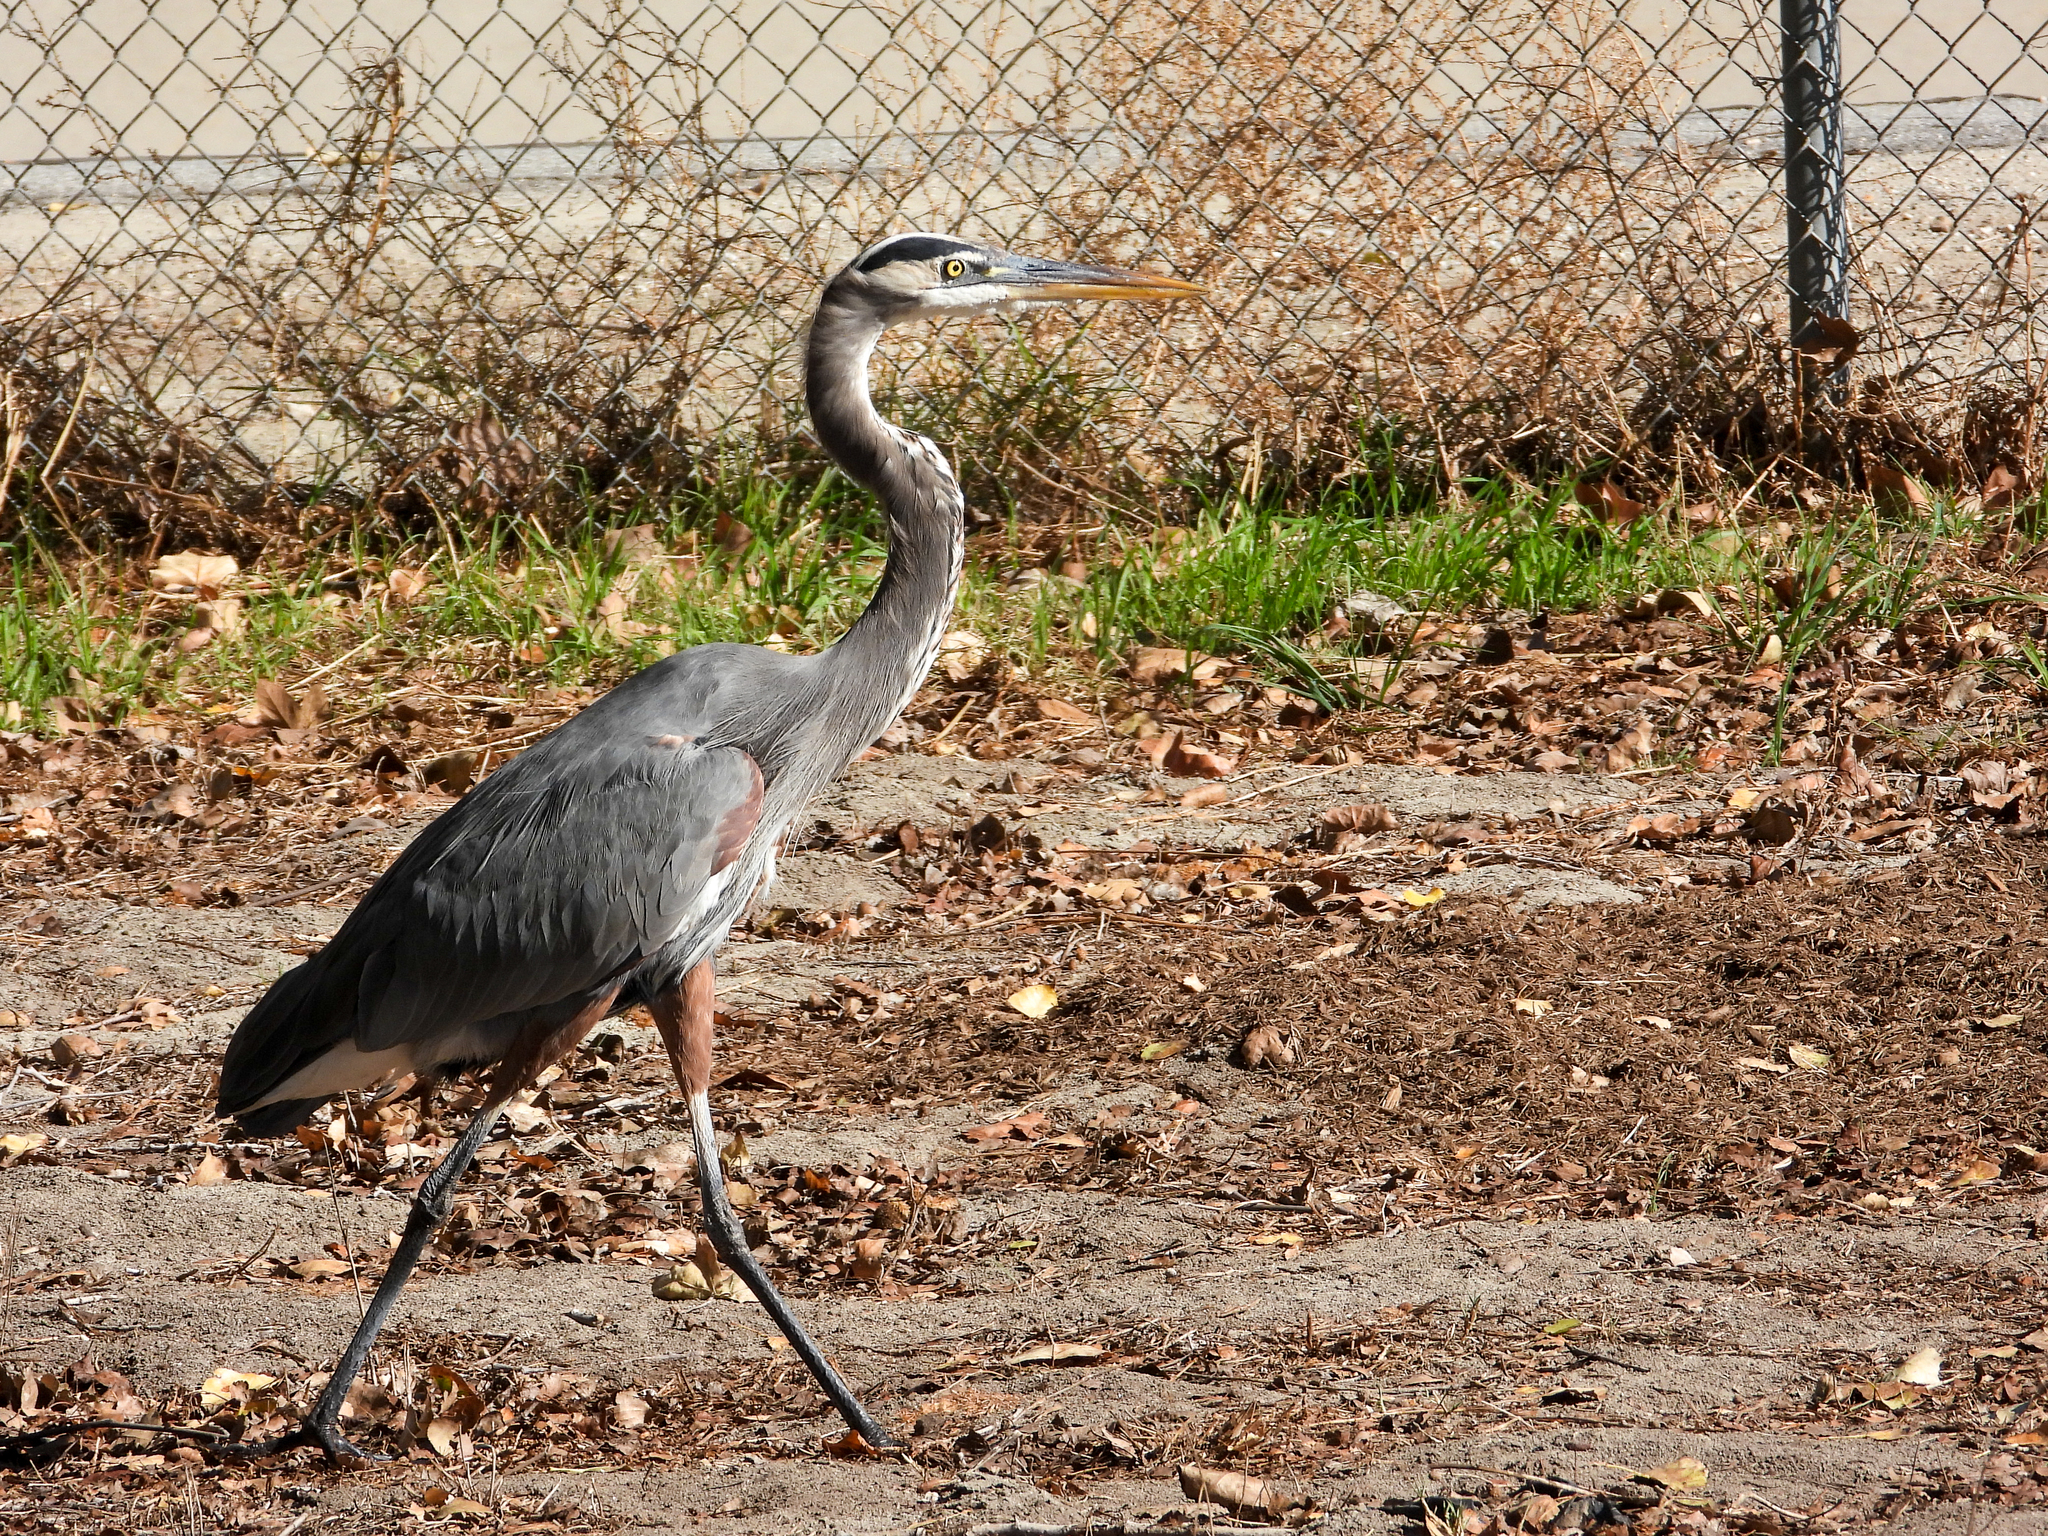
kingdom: Animalia
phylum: Chordata
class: Aves
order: Pelecaniformes
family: Ardeidae
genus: Ardea
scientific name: Ardea herodias
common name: Great blue heron
